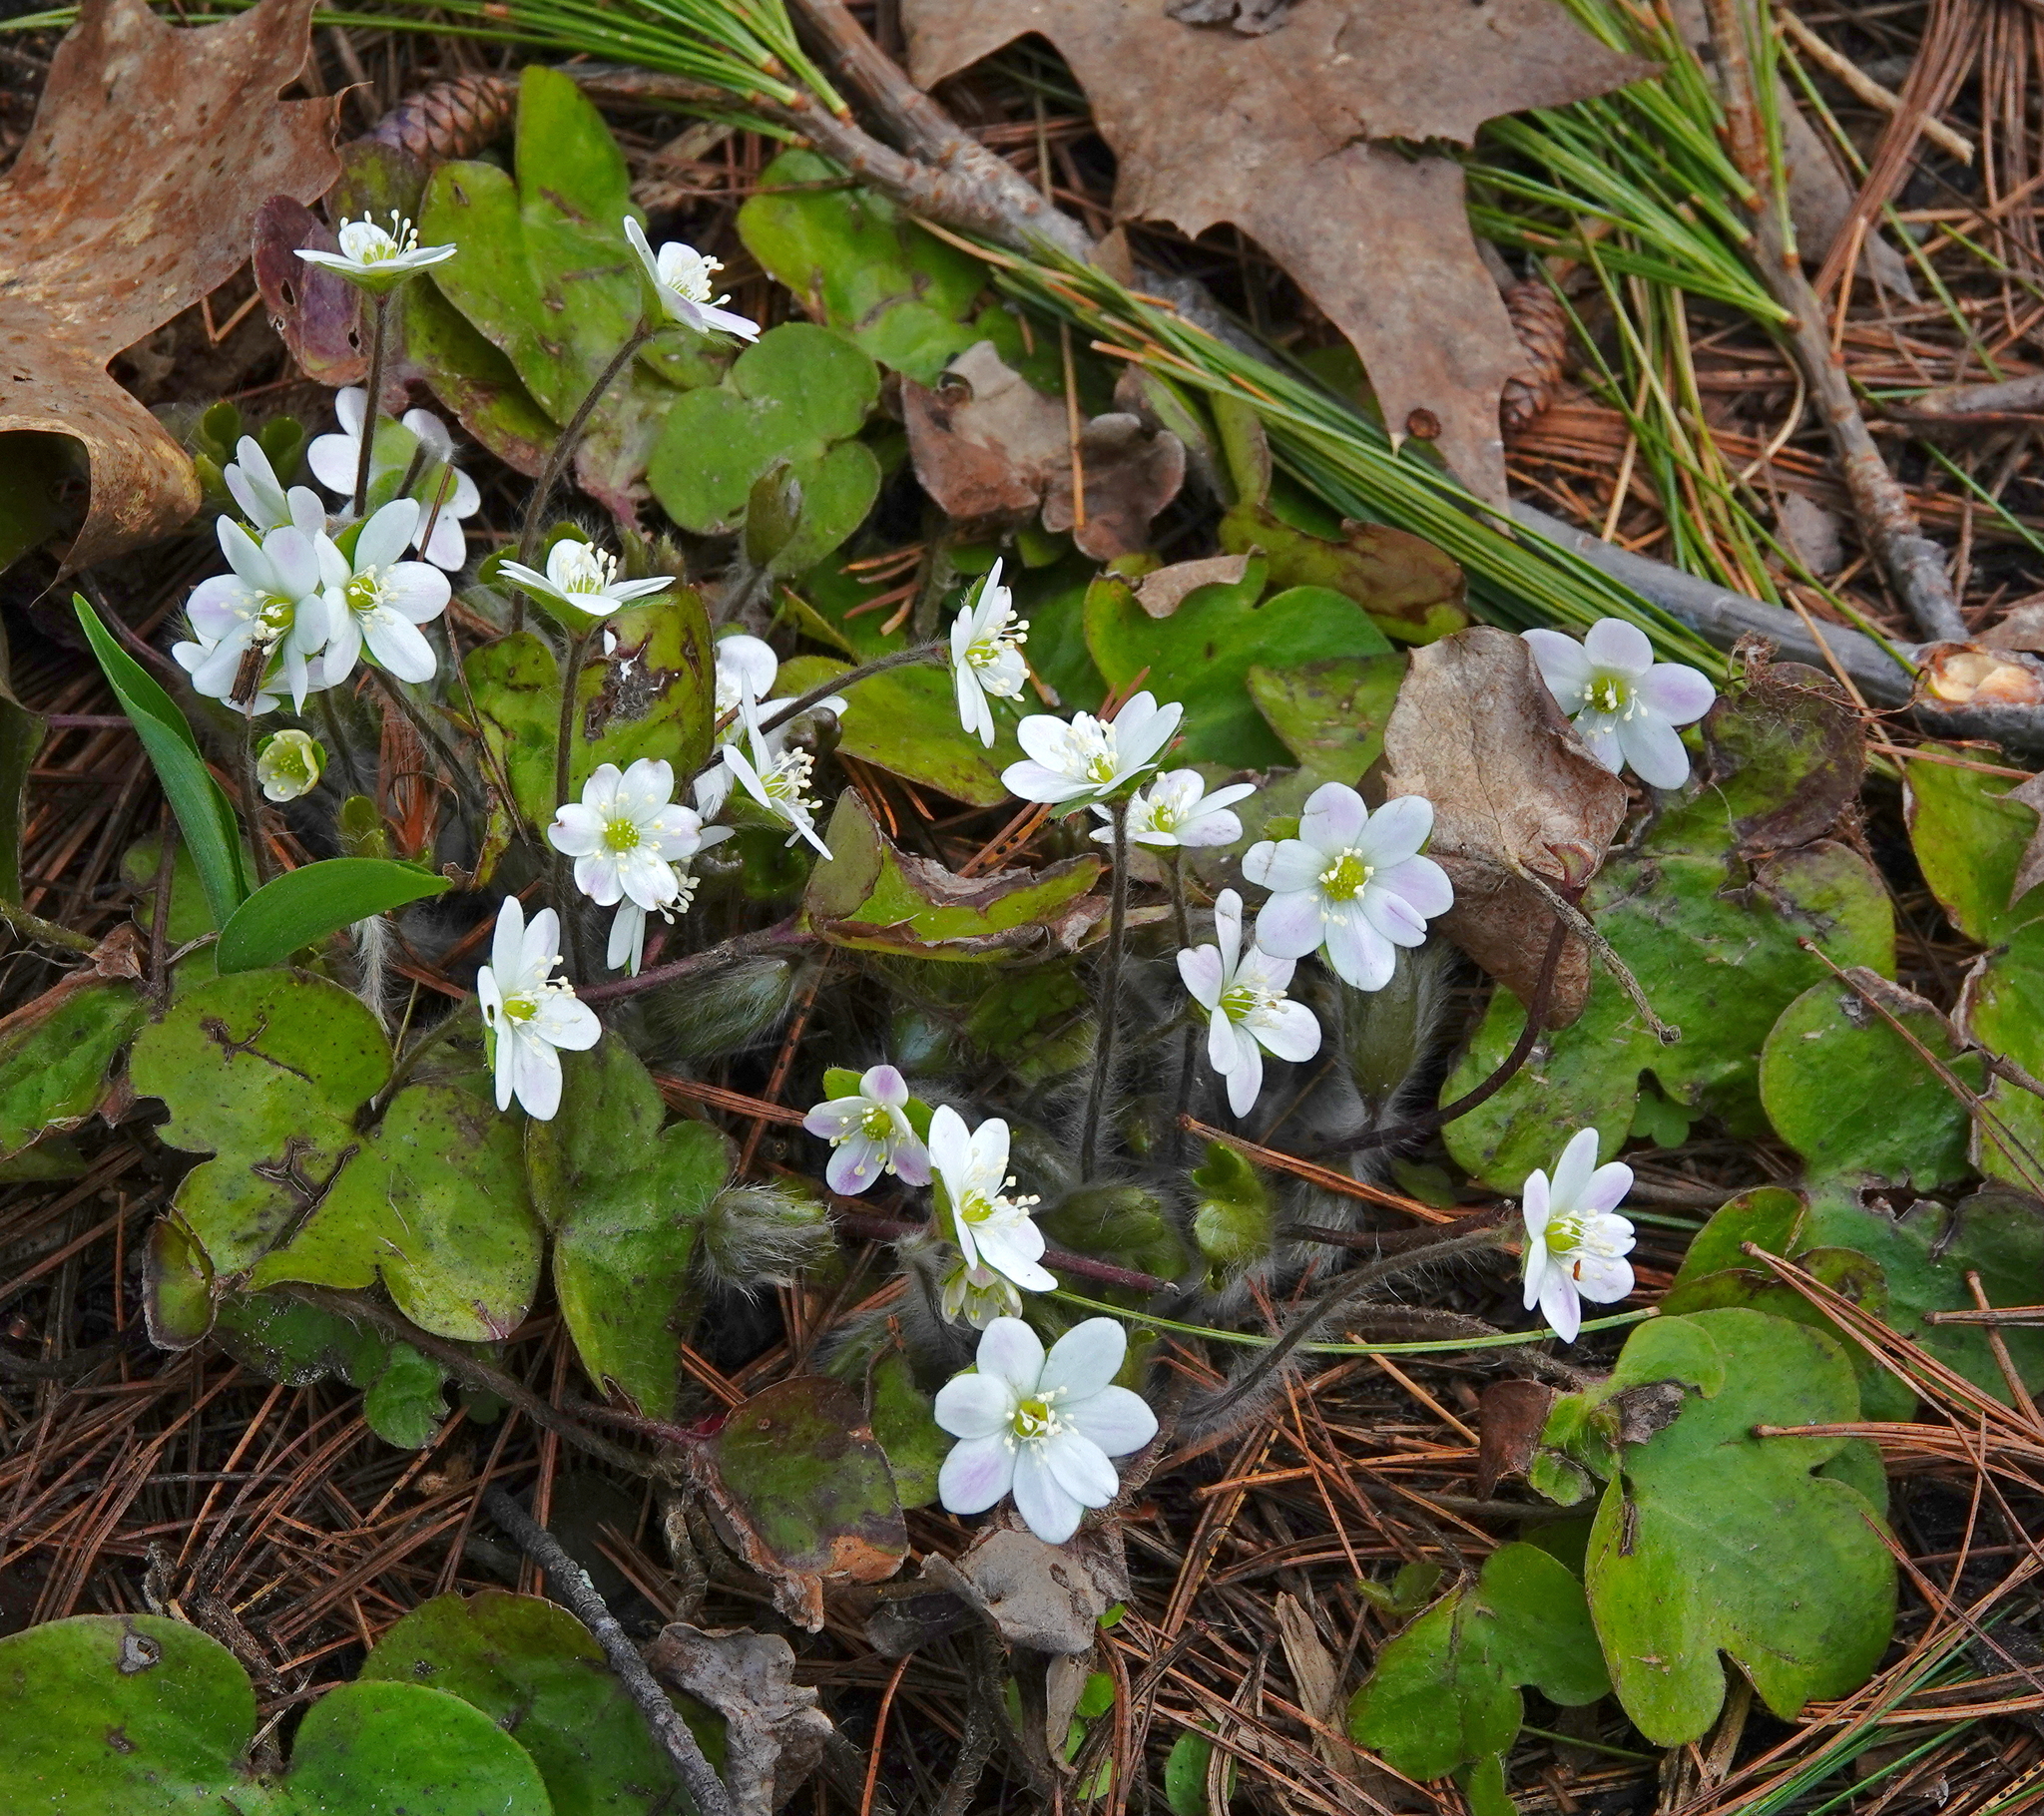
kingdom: Plantae
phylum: Tracheophyta
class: Magnoliopsida
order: Ranunculales
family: Ranunculaceae
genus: Hepatica
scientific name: Hepatica americana
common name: American hepatica
